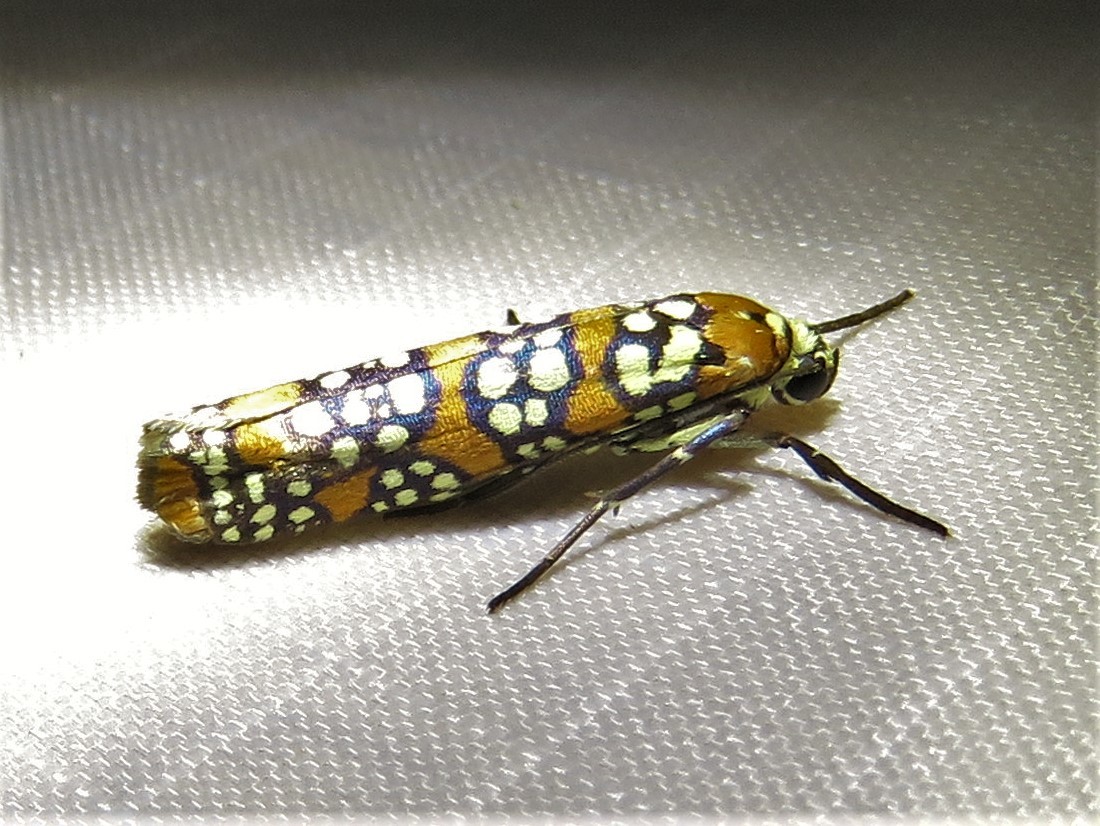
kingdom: Animalia
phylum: Arthropoda
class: Insecta
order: Lepidoptera
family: Attevidae
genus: Atteva
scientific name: Atteva punctella
